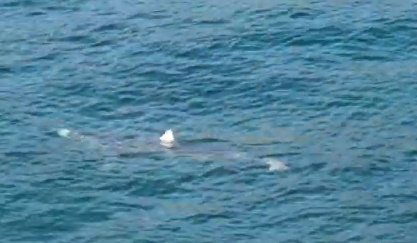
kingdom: Animalia
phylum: Chordata
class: Elasmobranchii
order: Carcharhiniformes
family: Carcharhinidae
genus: Prionace
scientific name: Prionace glauca
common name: Blue shark
